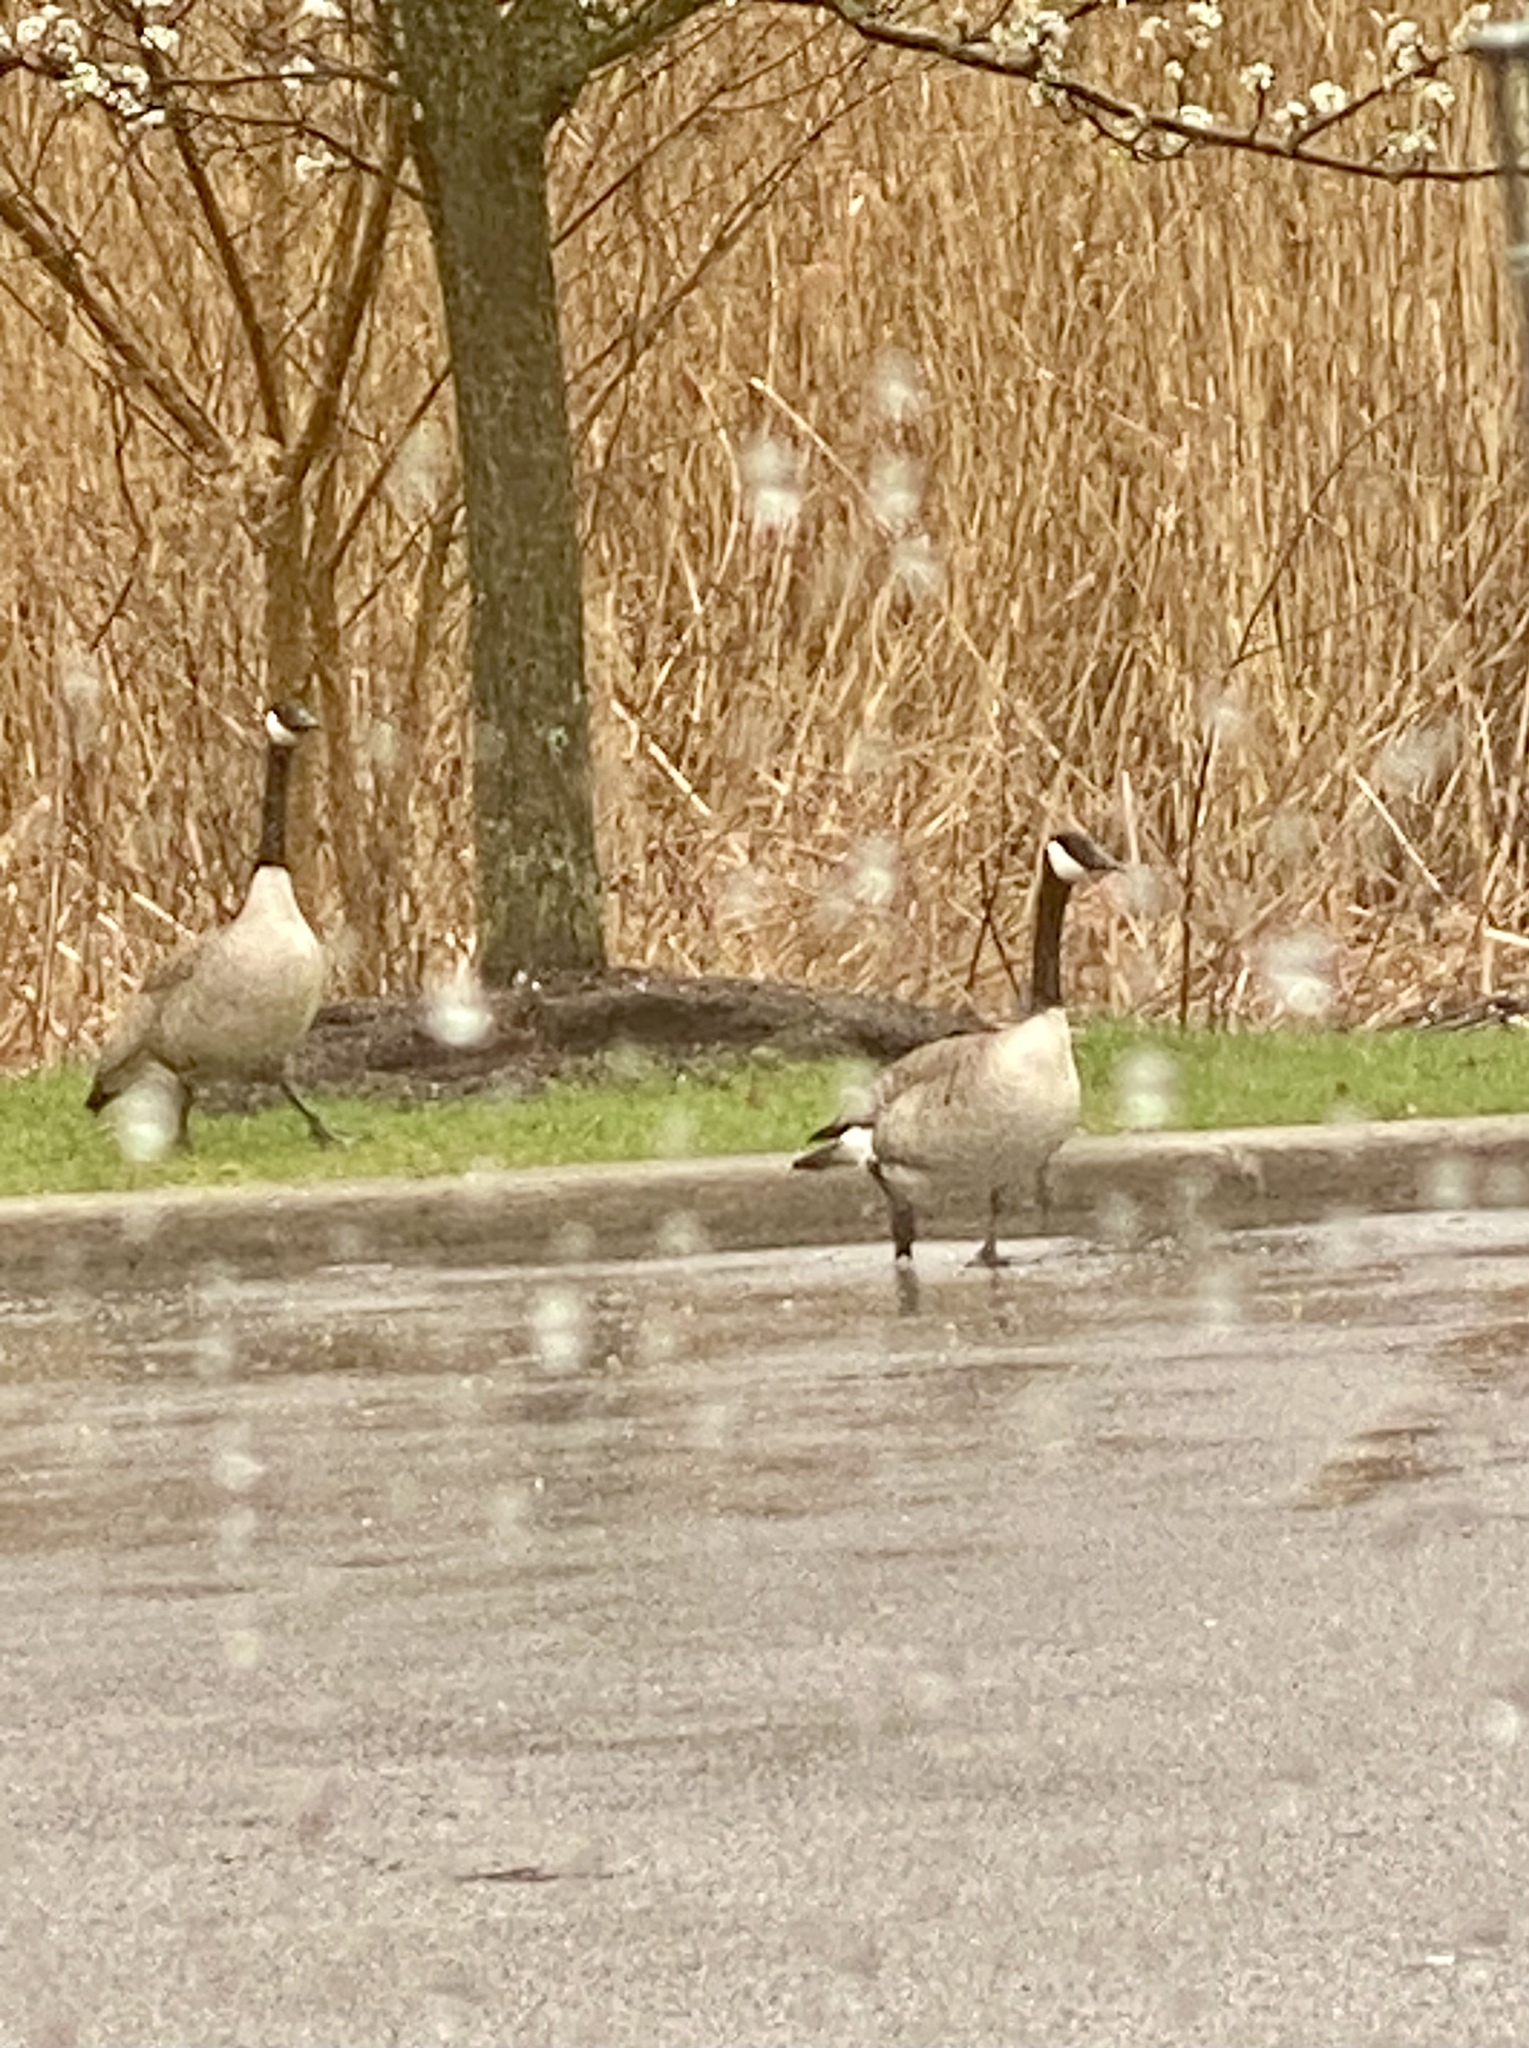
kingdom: Animalia
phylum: Chordata
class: Aves
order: Anseriformes
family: Anatidae
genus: Branta
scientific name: Branta canadensis
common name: Canada goose
